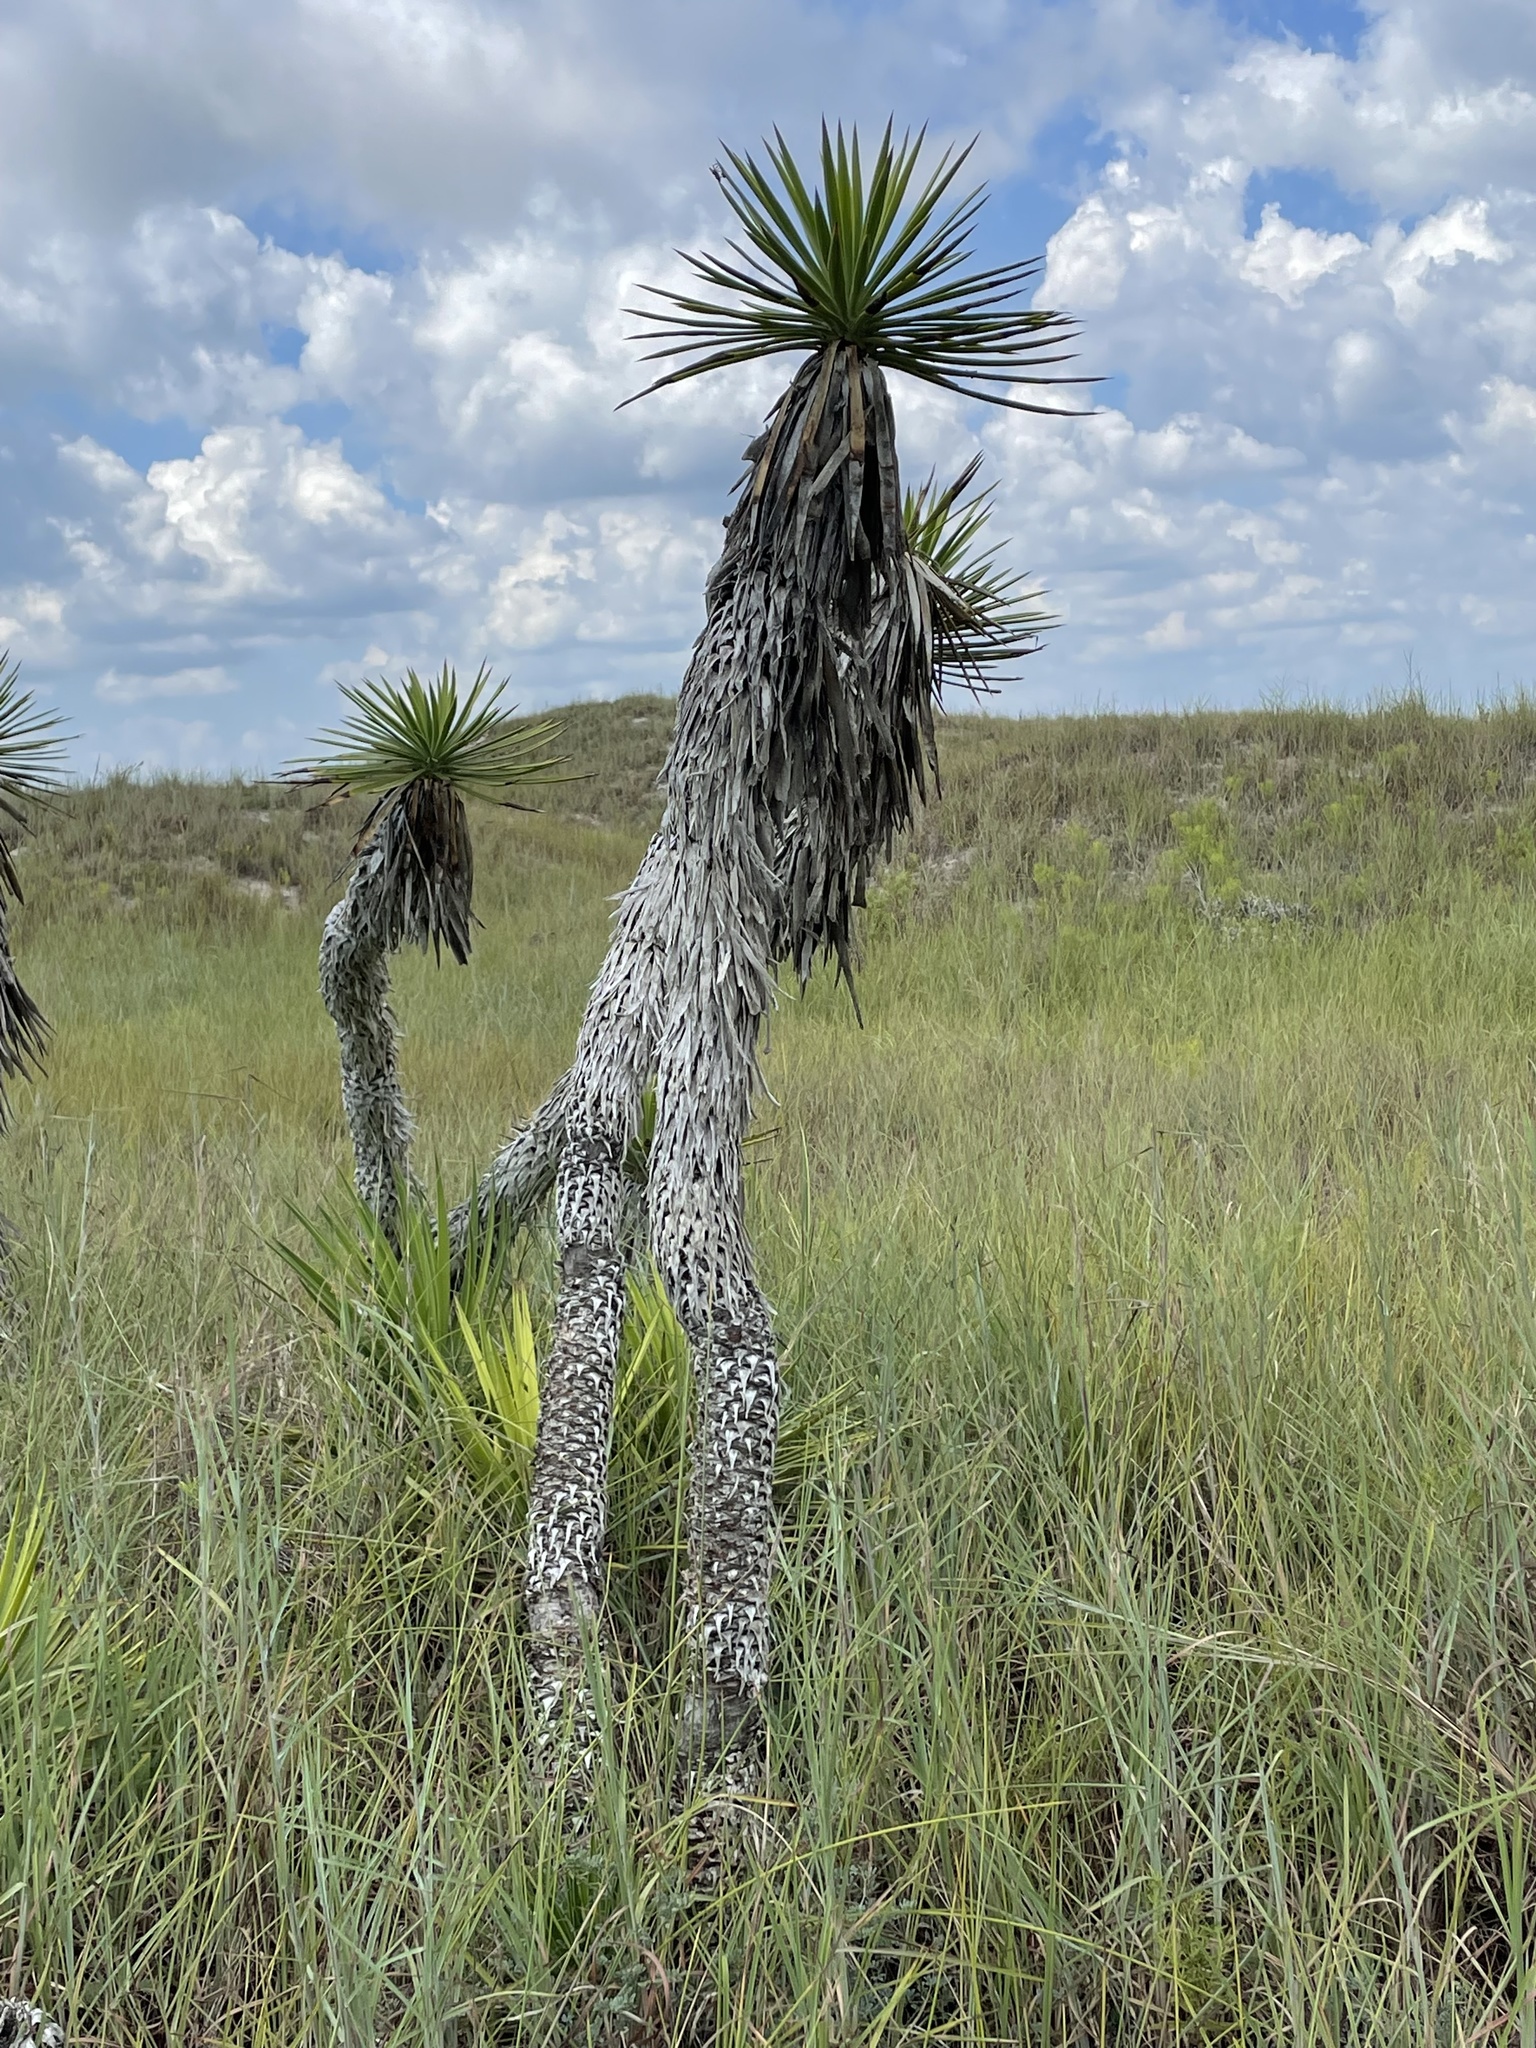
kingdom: Plantae
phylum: Tracheophyta
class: Liliopsida
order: Asparagales
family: Asparagaceae
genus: Yucca
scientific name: Yucca aloifolia
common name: Aloe yucca
